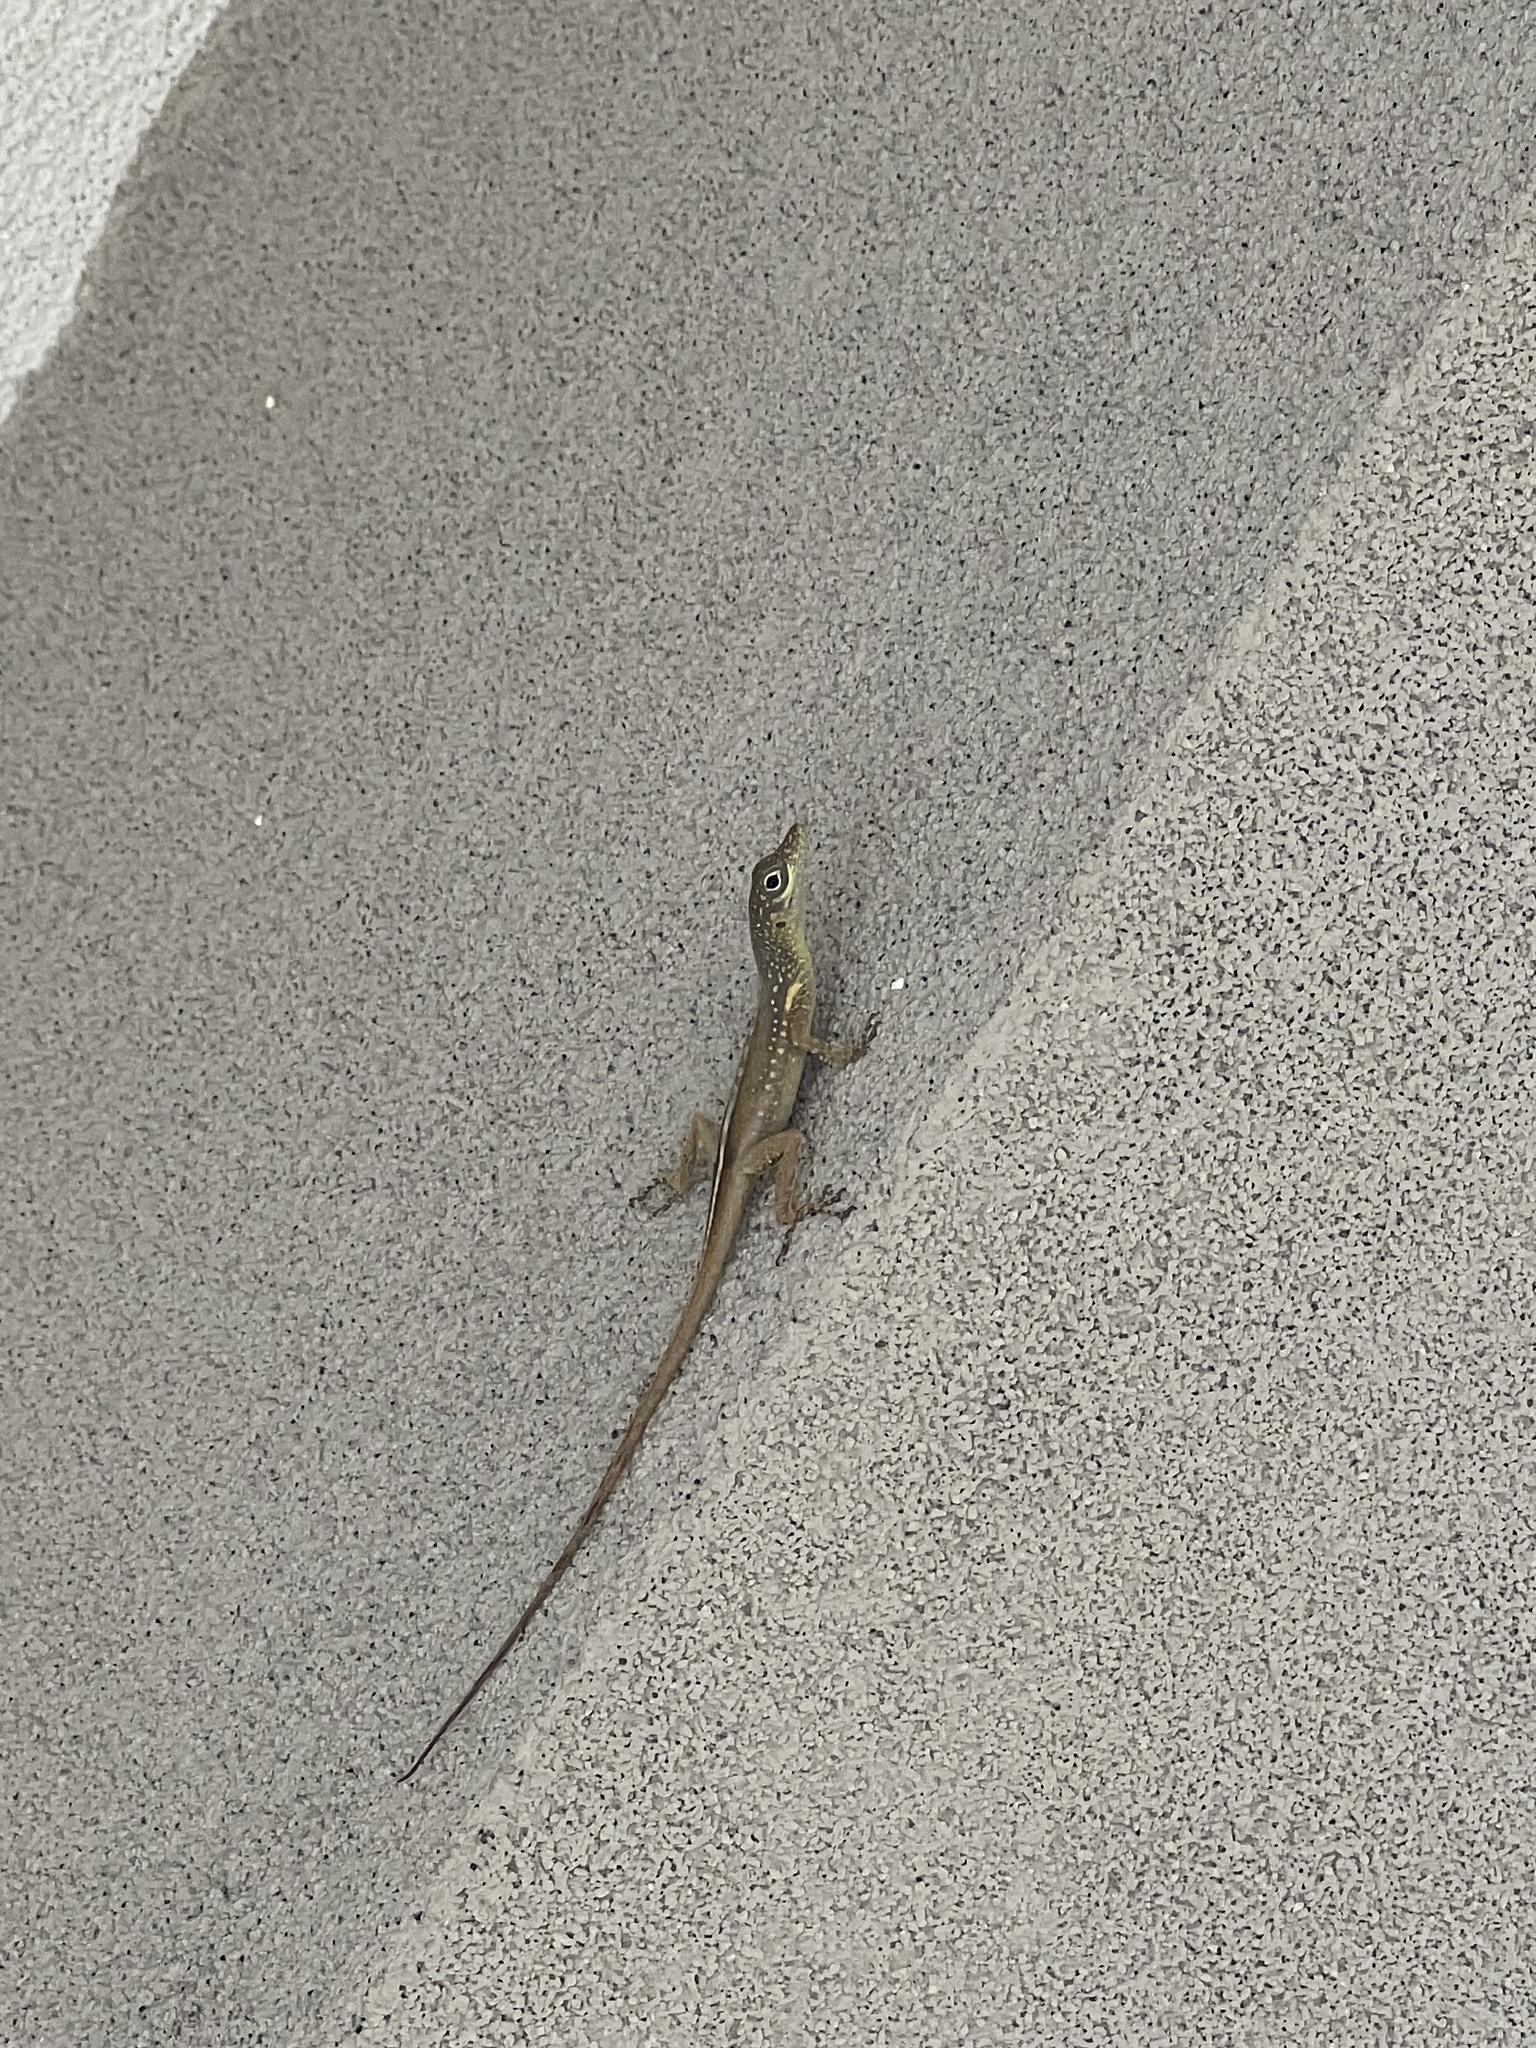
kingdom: Animalia
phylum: Chordata
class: Squamata
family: Dactyloidae
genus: Anolis
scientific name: Anolis conspersus
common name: Grand cayman anole
